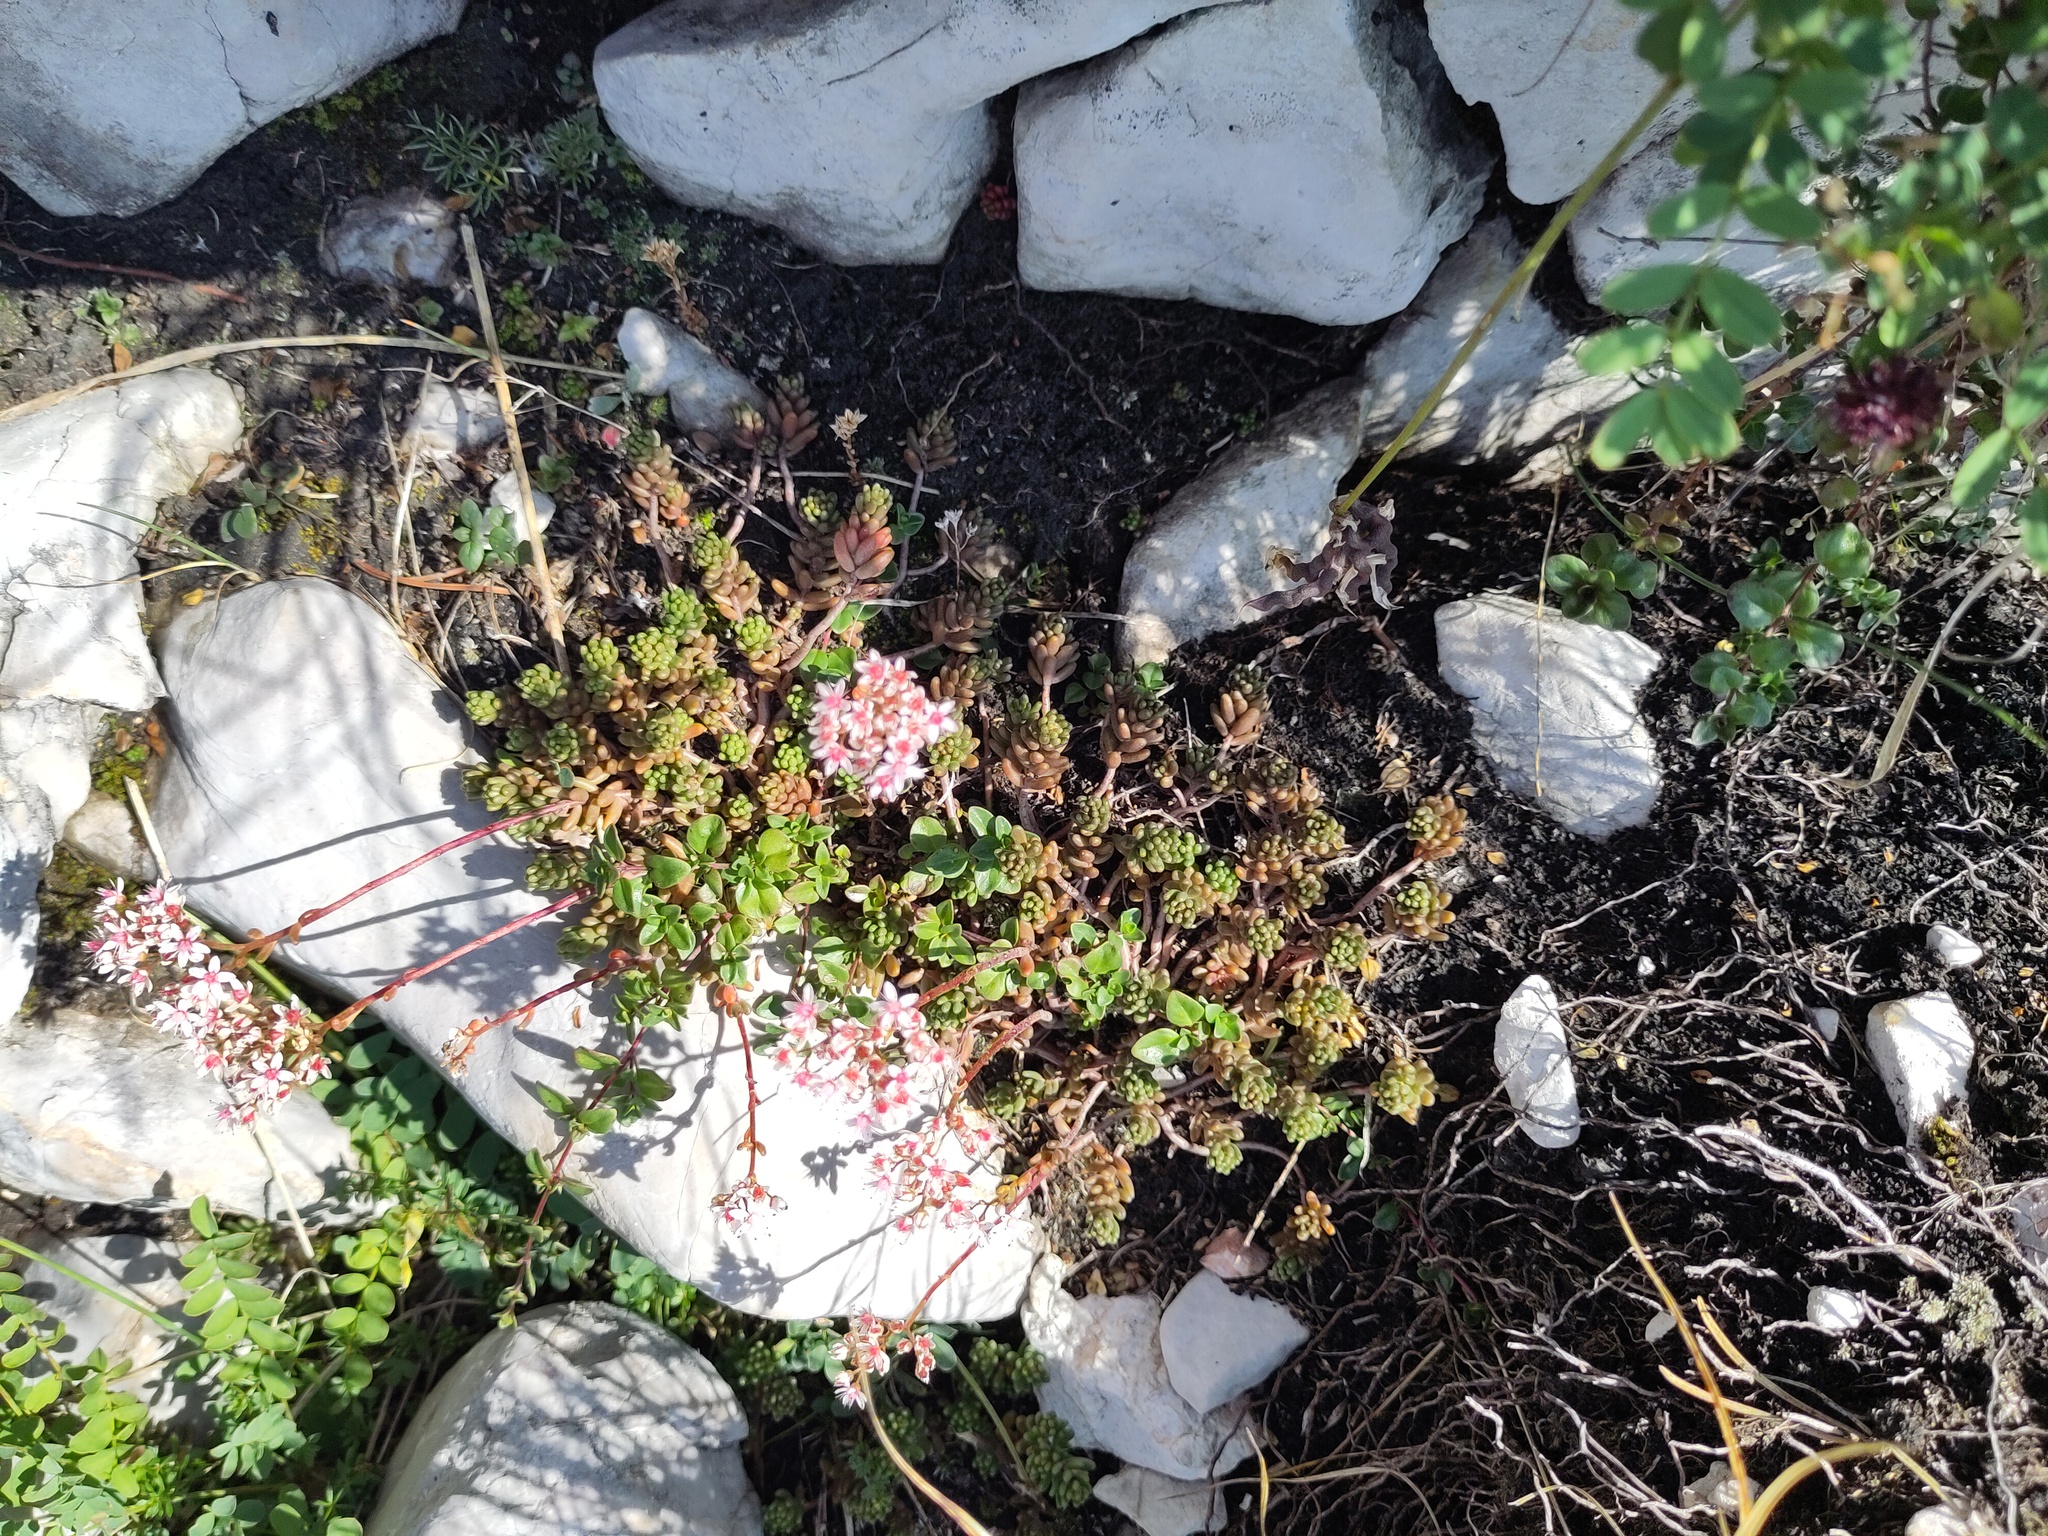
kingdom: Plantae
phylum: Tracheophyta
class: Magnoliopsida
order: Saxifragales
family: Crassulaceae
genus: Sedum
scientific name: Sedum album
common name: White stonecrop
